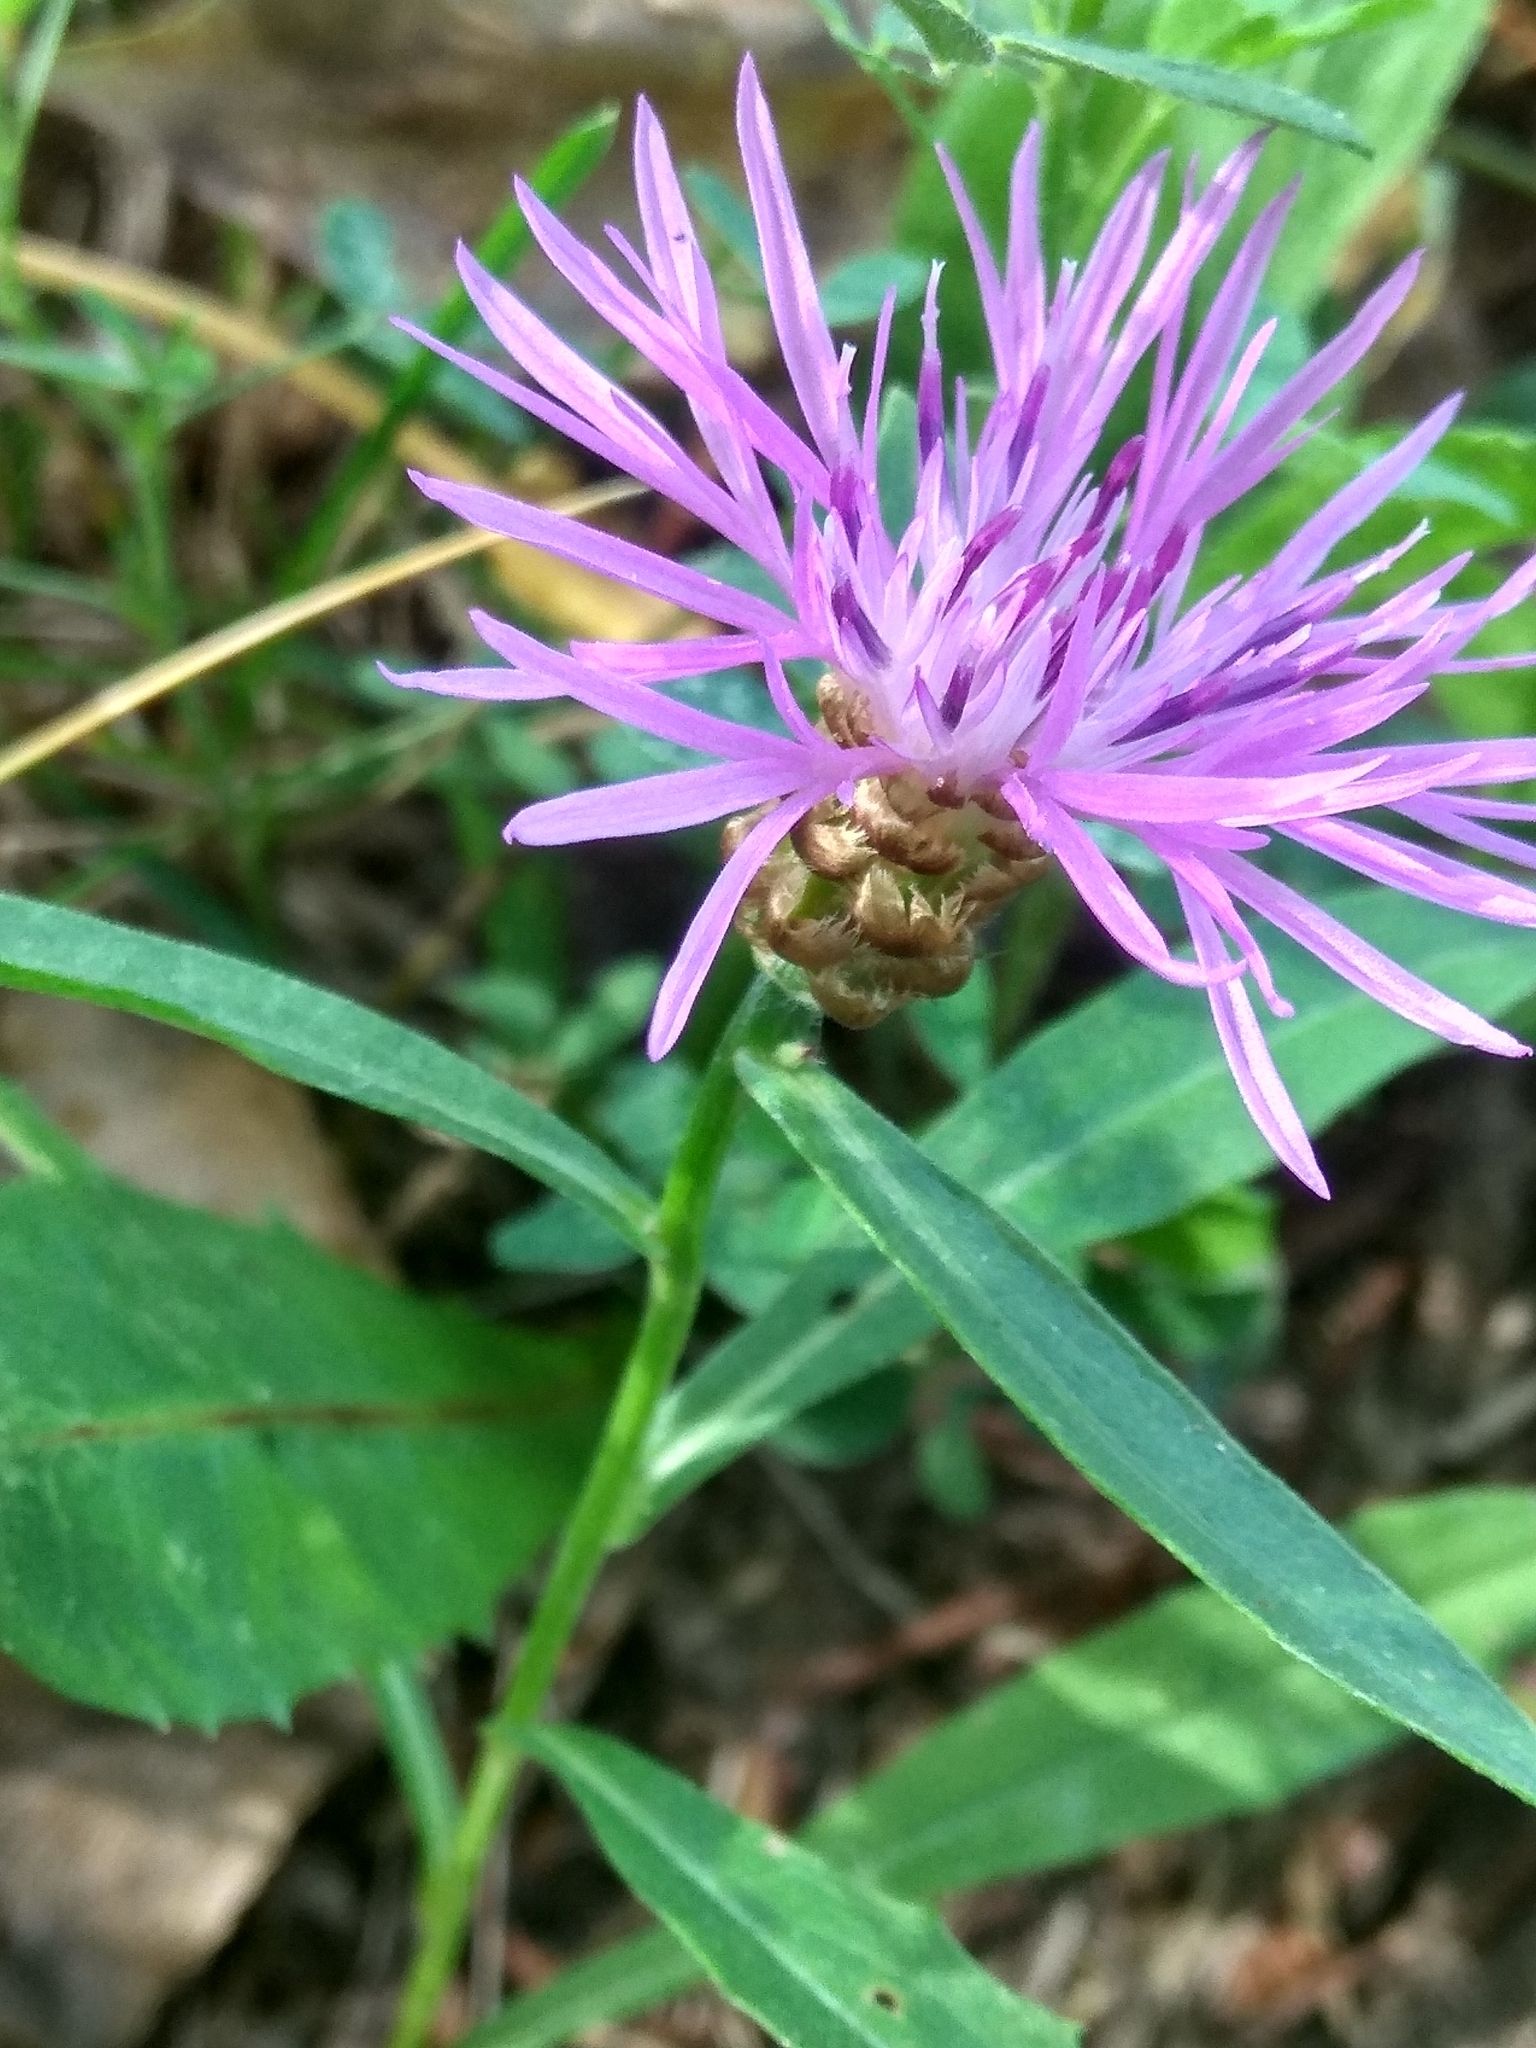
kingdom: Plantae
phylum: Tracheophyta
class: Magnoliopsida
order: Asterales
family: Asteraceae
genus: Centaurea
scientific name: Centaurea jacea
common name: Brown knapweed
